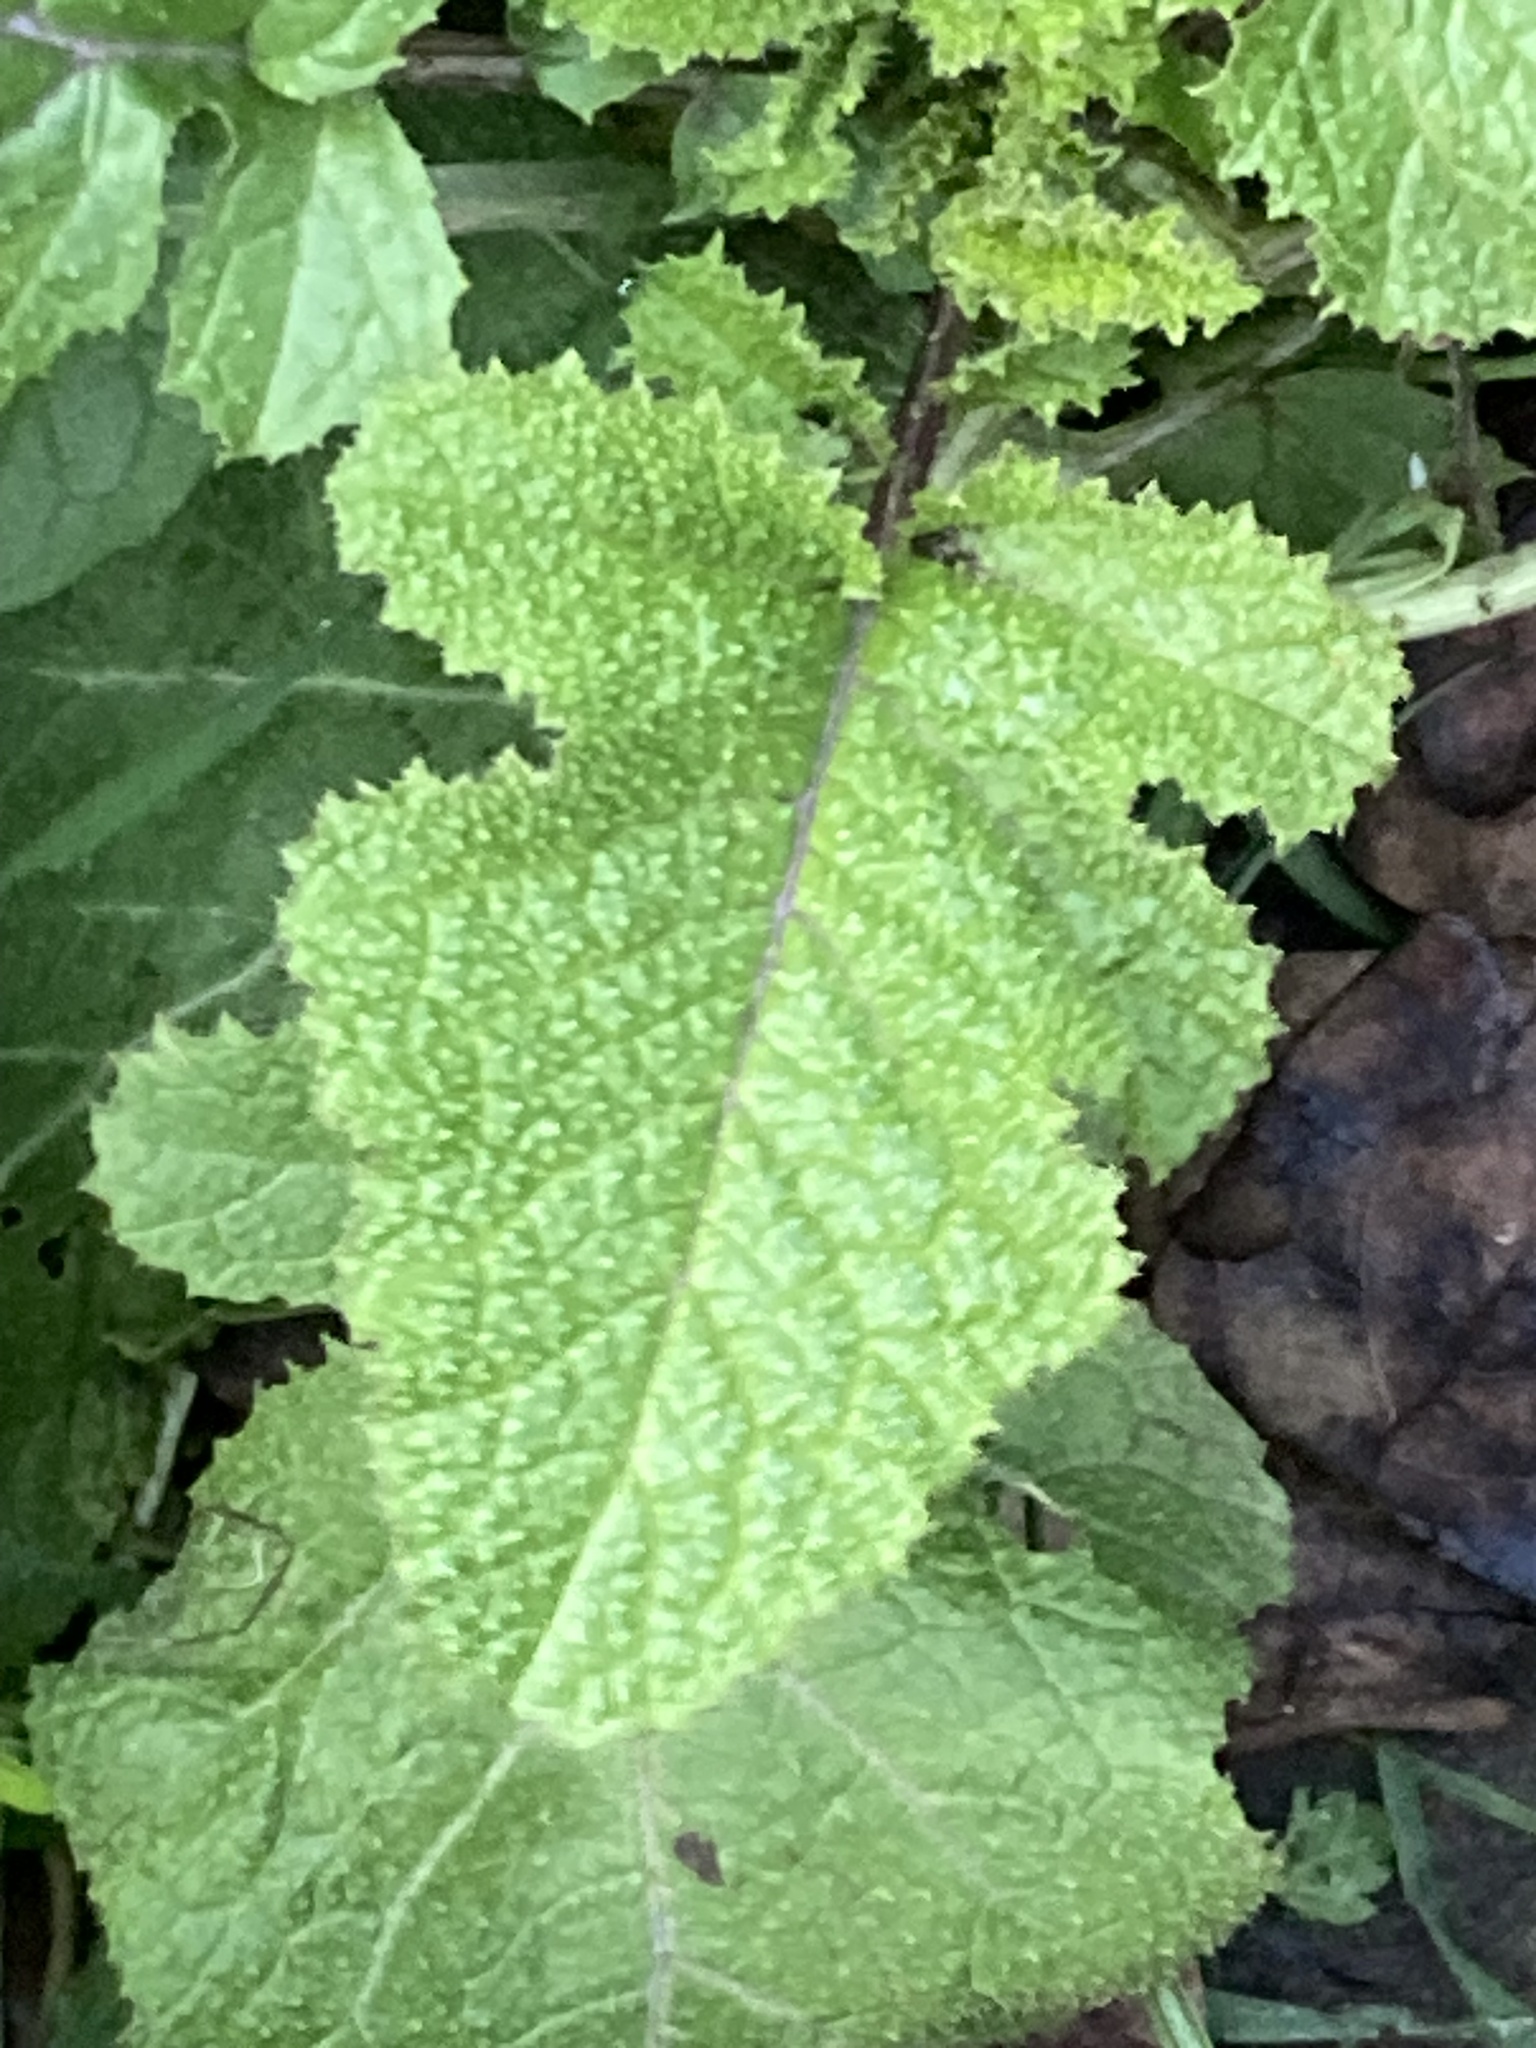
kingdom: Plantae
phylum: Tracheophyta
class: Magnoliopsida
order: Brassicales
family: Brassicaceae
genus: Sinapis
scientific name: Sinapis arvensis
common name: Charlock
